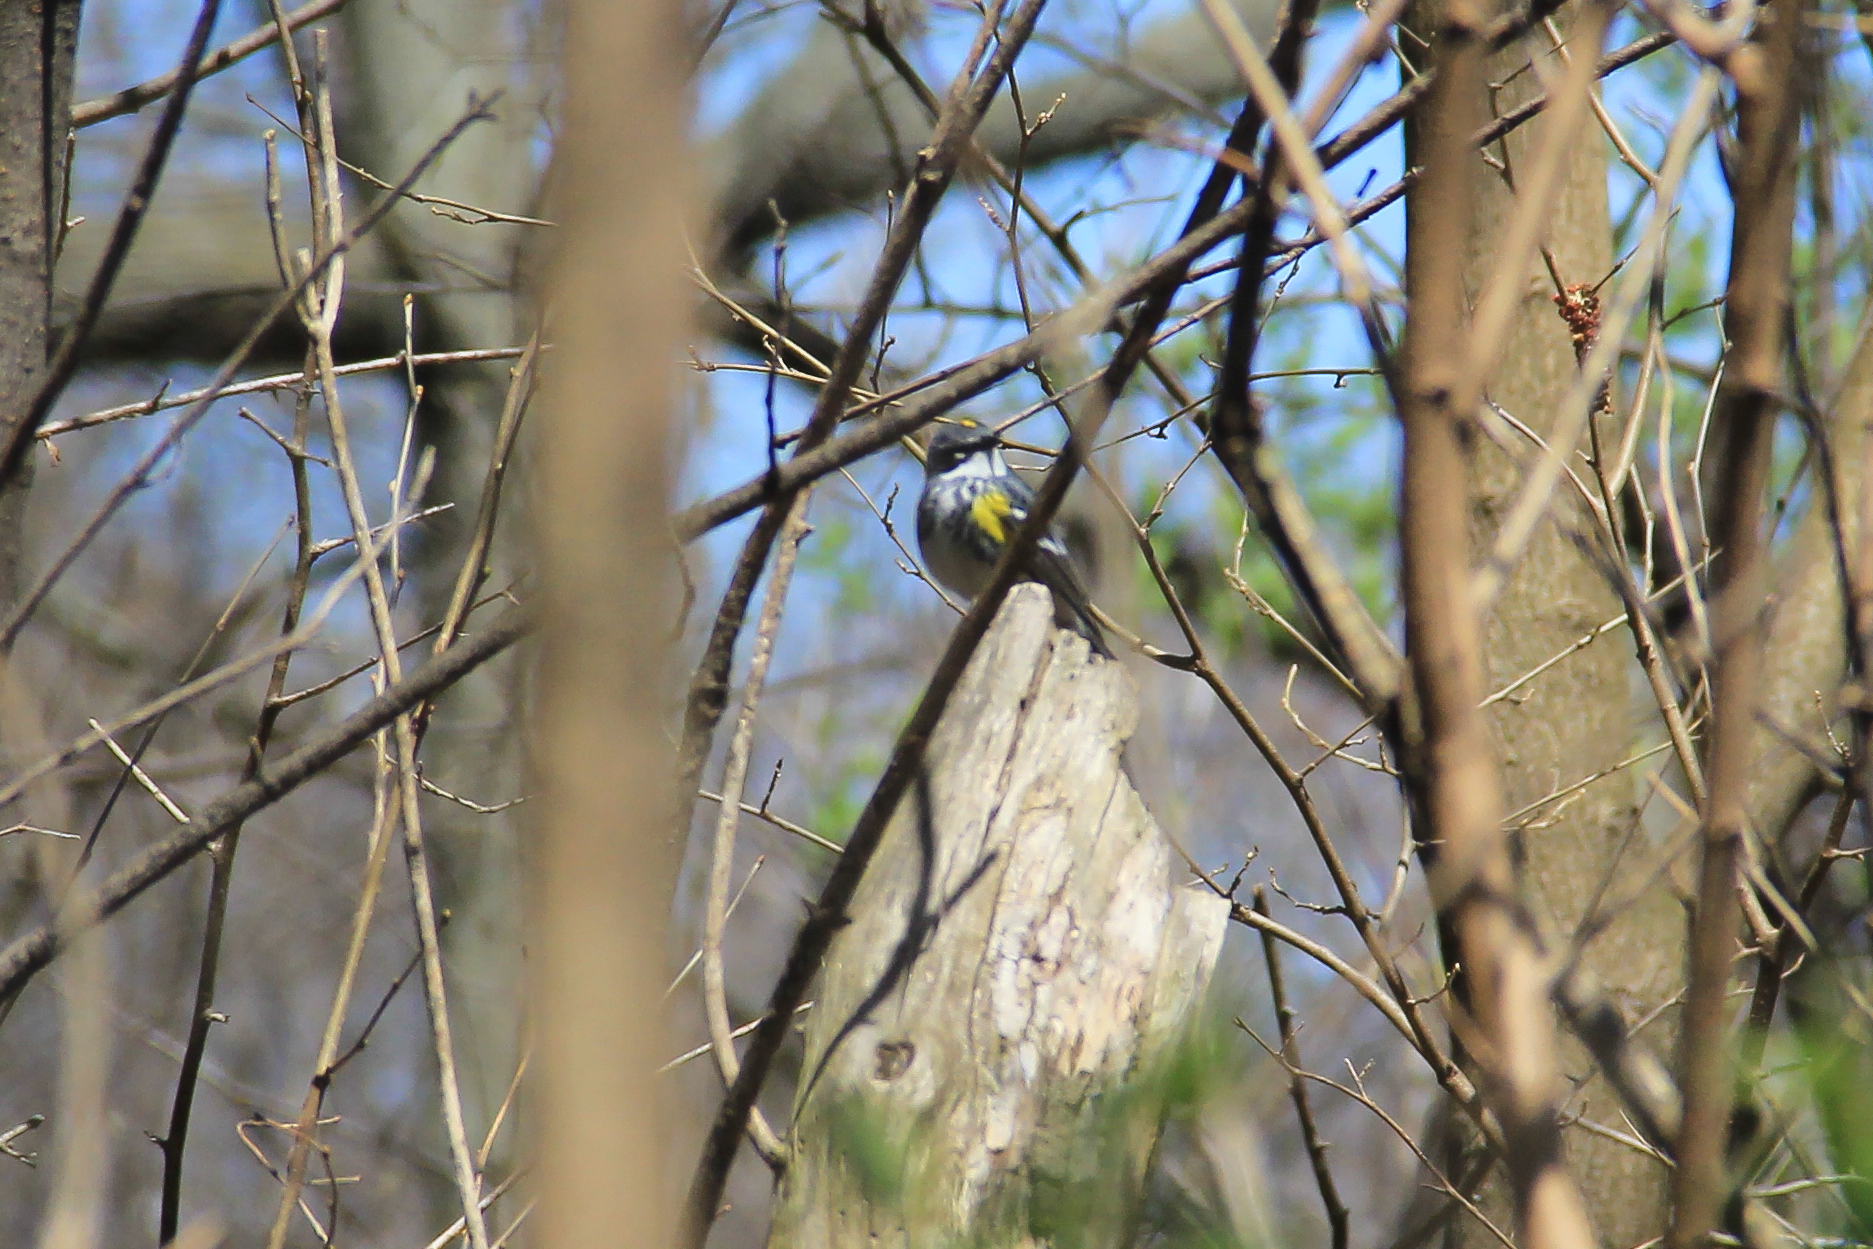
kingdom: Animalia
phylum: Chordata
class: Aves
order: Passeriformes
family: Parulidae
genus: Setophaga
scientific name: Setophaga coronata
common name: Myrtle warbler
